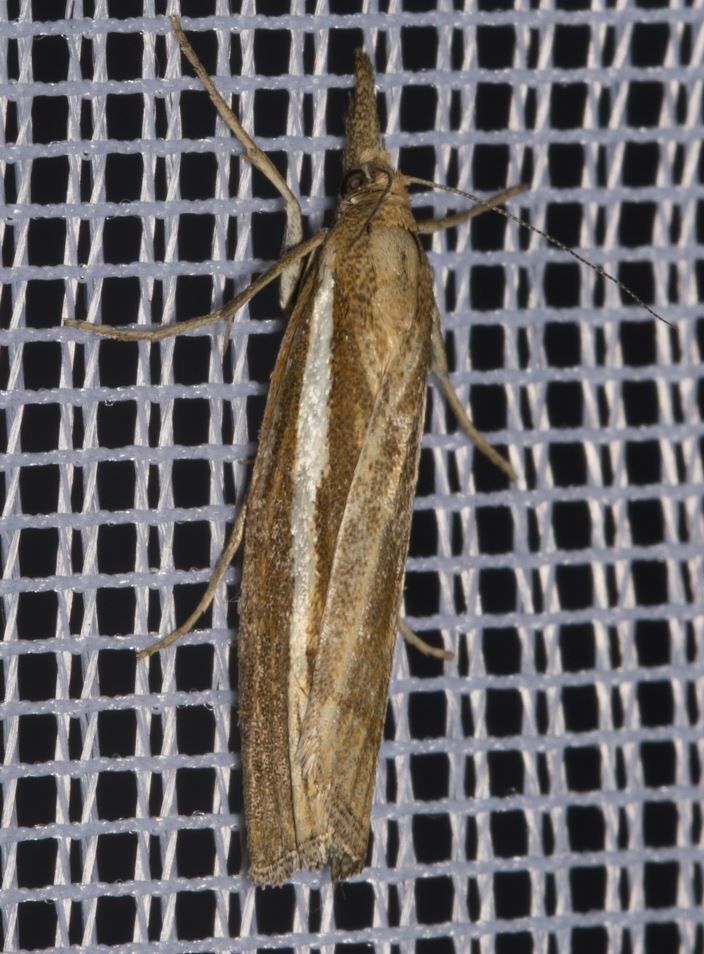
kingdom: Animalia
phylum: Arthropoda
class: Insecta
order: Lepidoptera
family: Crambidae
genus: Agriphila
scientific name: Agriphila tristellus
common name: Common grass-veneer
